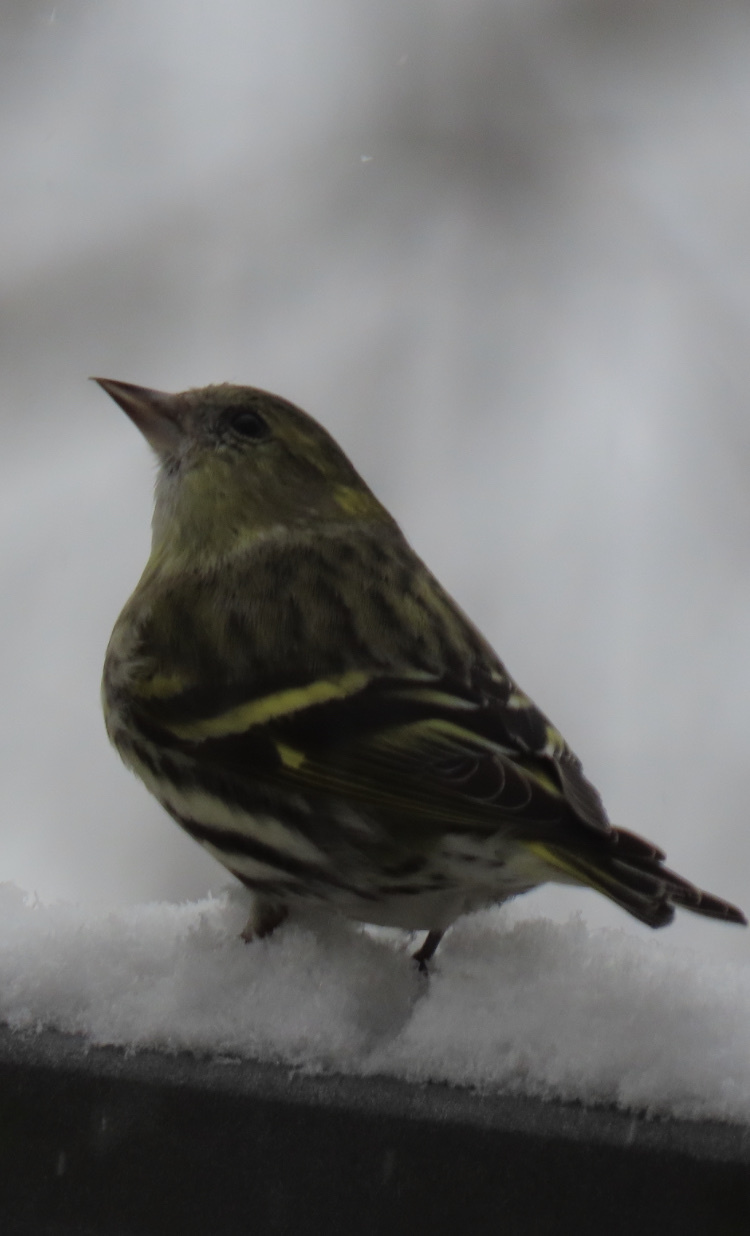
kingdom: Animalia
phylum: Chordata
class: Aves
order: Passeriformes
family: Fringillidae
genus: Spinus
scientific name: Spinus spinus
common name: Eurasian siskin
